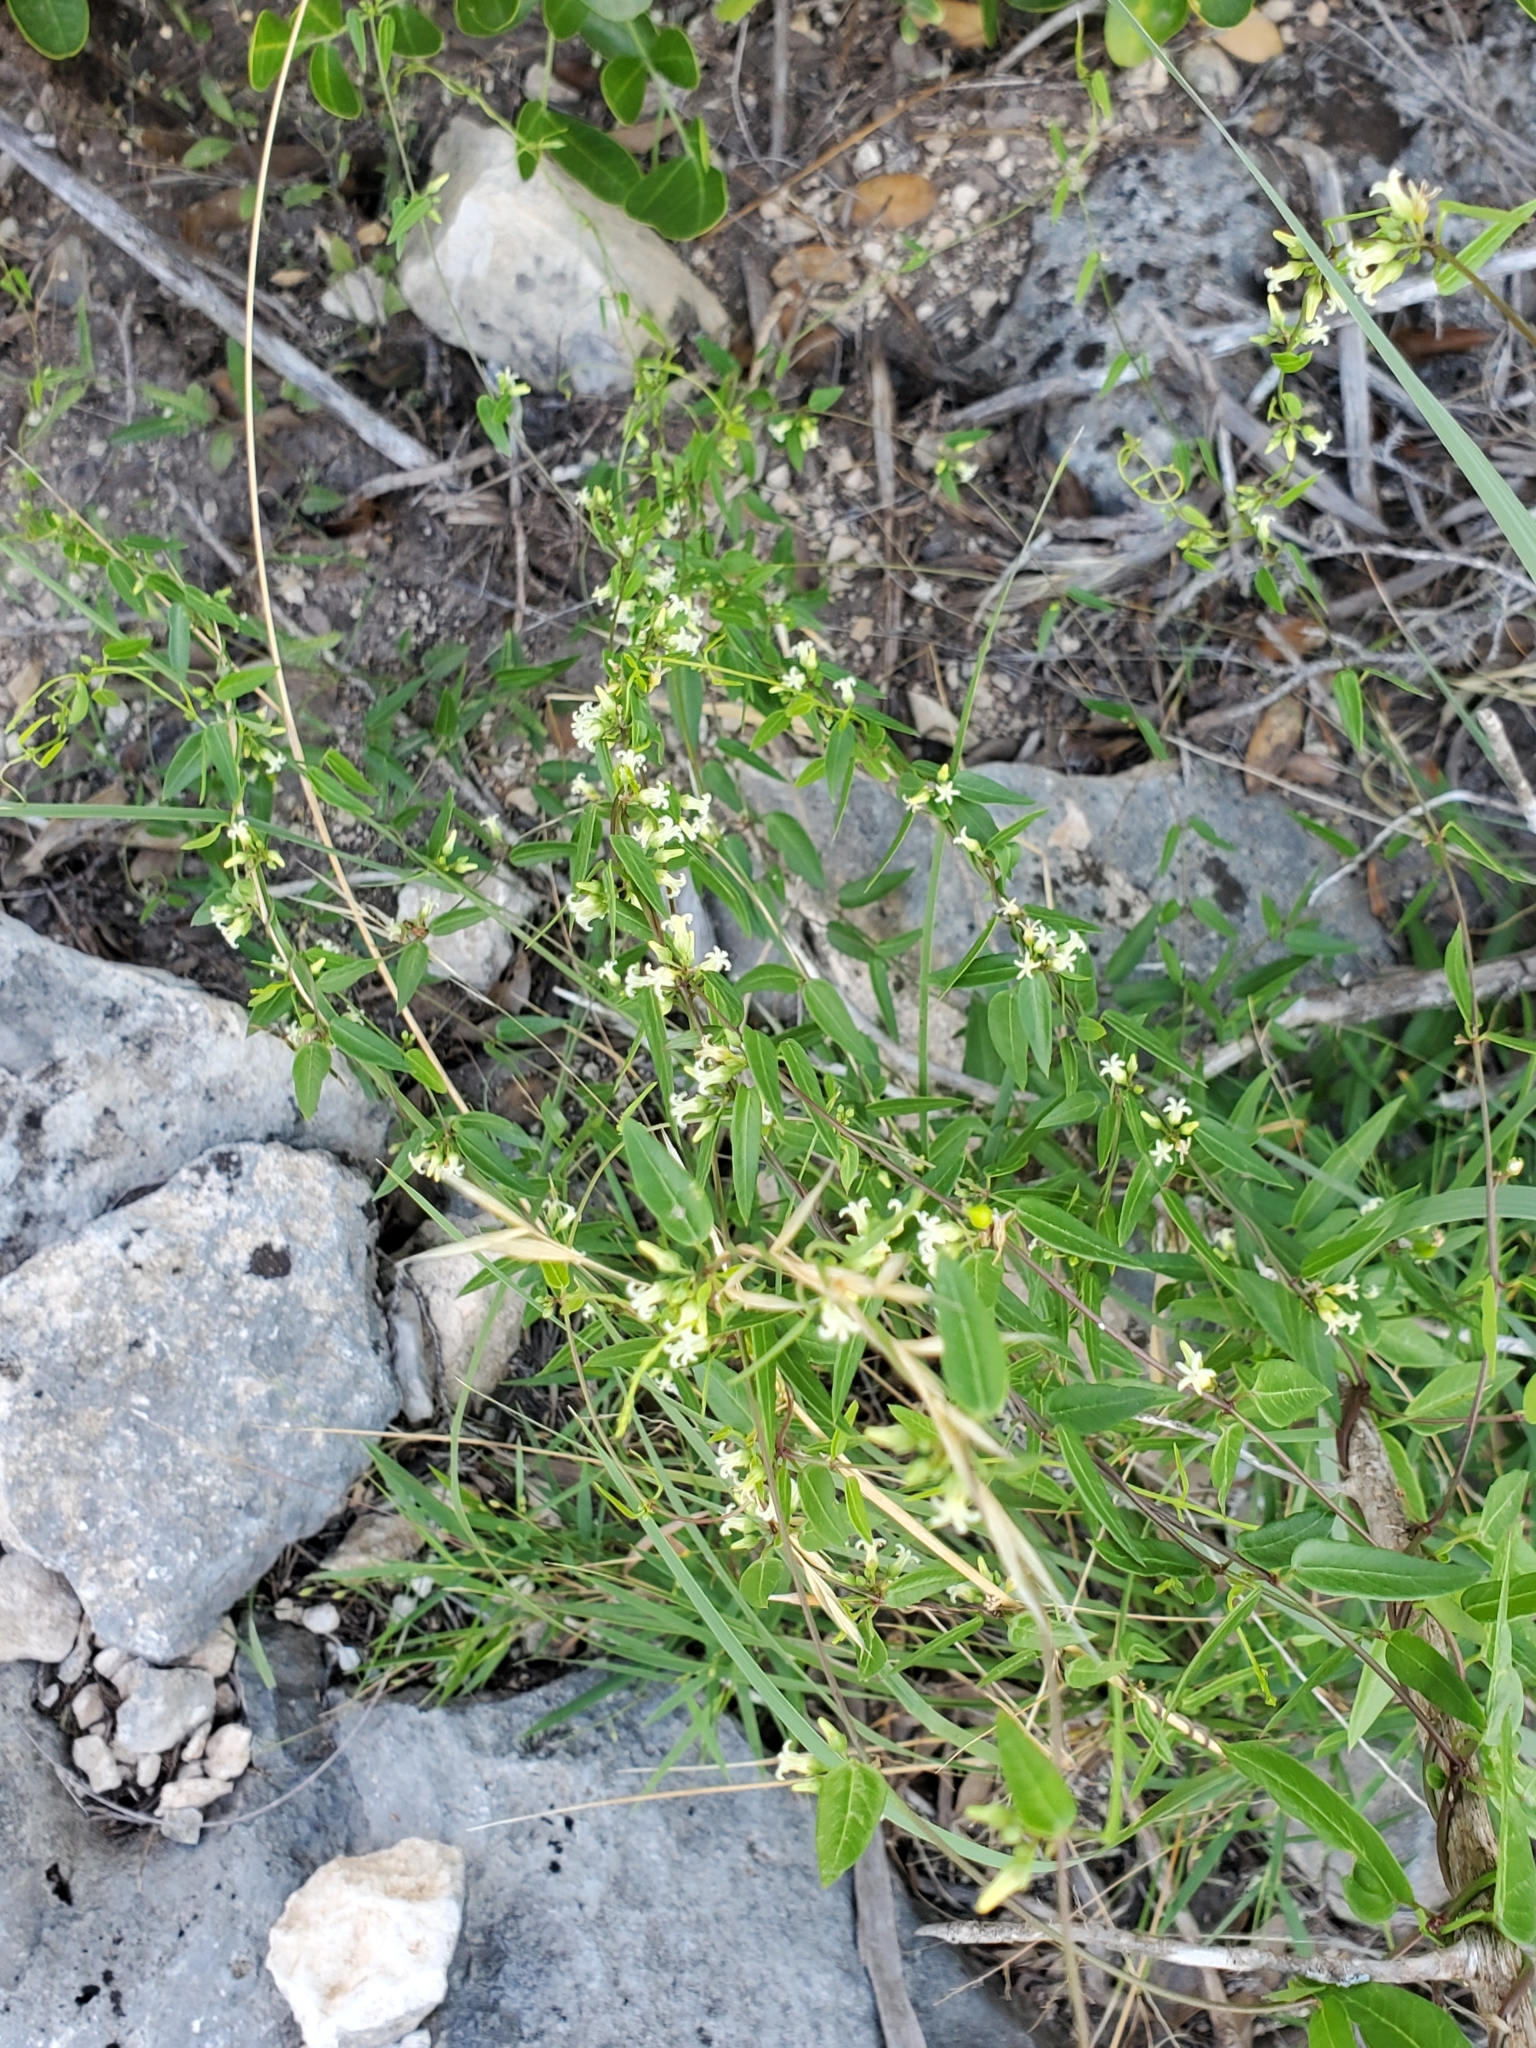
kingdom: Plantae
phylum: Tracheophyta
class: Magnoliopsida
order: Gentianales
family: Apocynaceae
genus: Metastelma
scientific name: Metastelma barbigerum
